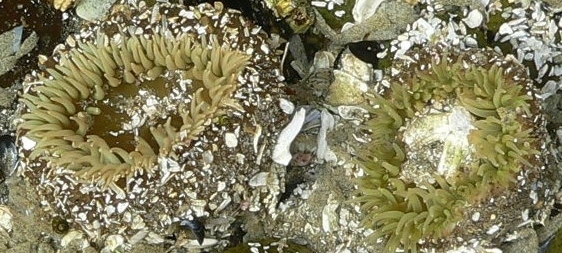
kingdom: Animalia
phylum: Cnidaria
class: Anthozoa
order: Actiniaria
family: Actiniidae
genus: Anthopleura
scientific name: Anthopleura xanthogrammica
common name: Giant green anemone
